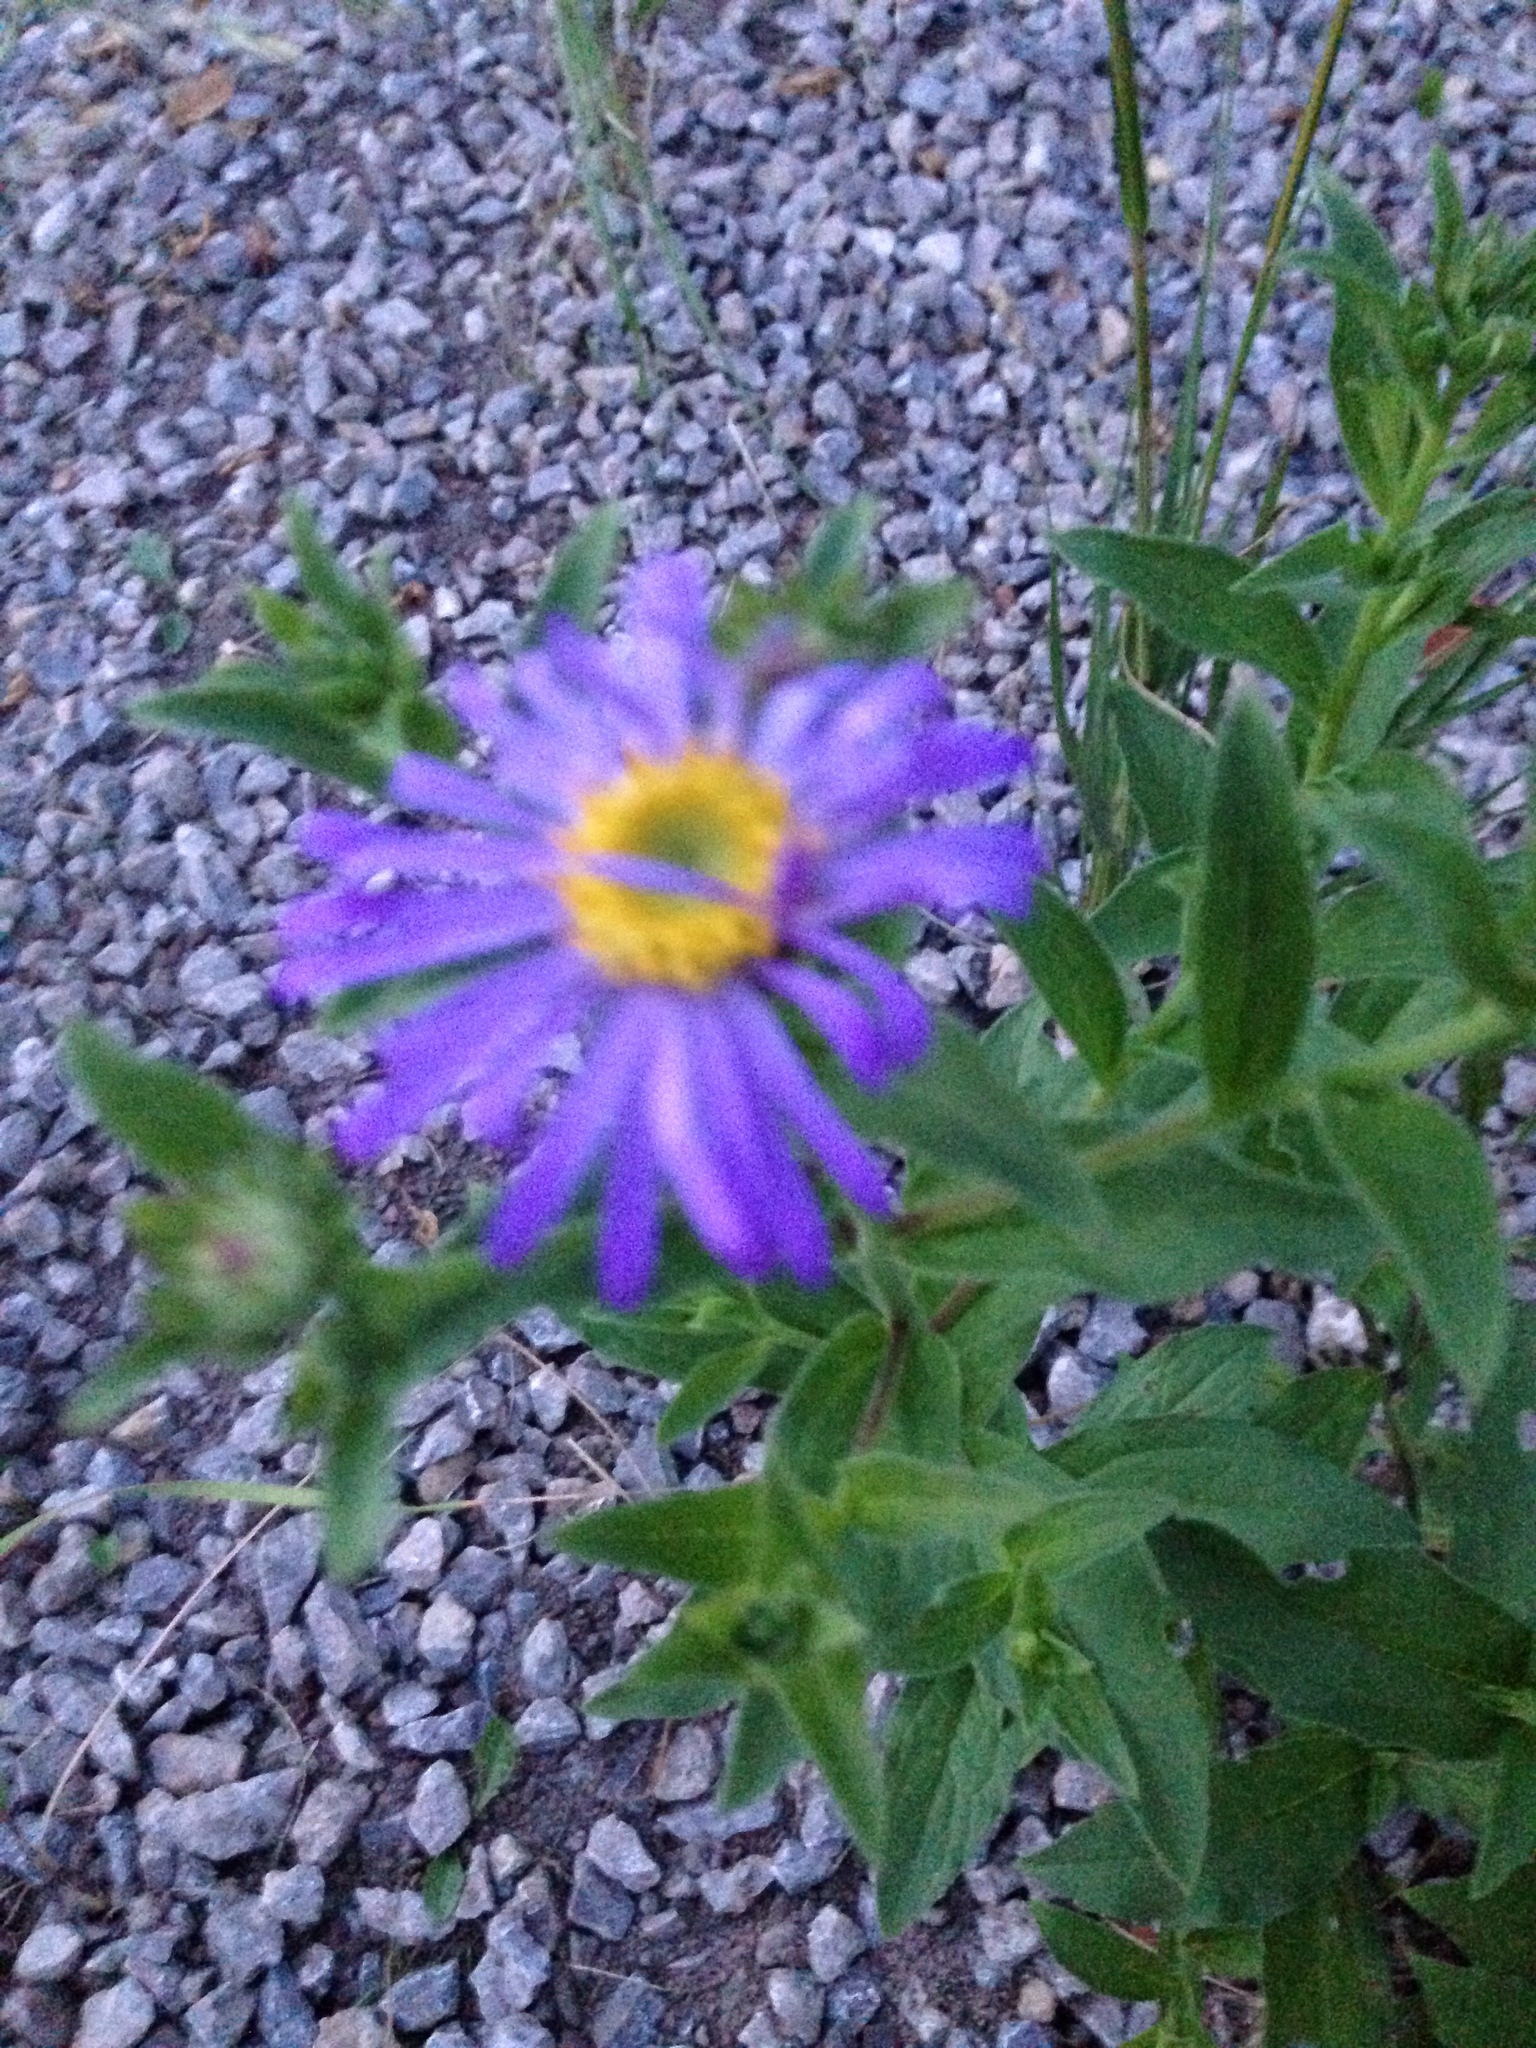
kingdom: Plantae
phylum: Tracheophyta
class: Magnoliopsida
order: Asterales
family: Asteraceae
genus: Symphyotrichum
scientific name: Symphyotrichum novae-angliae
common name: Michaelmas daisy
